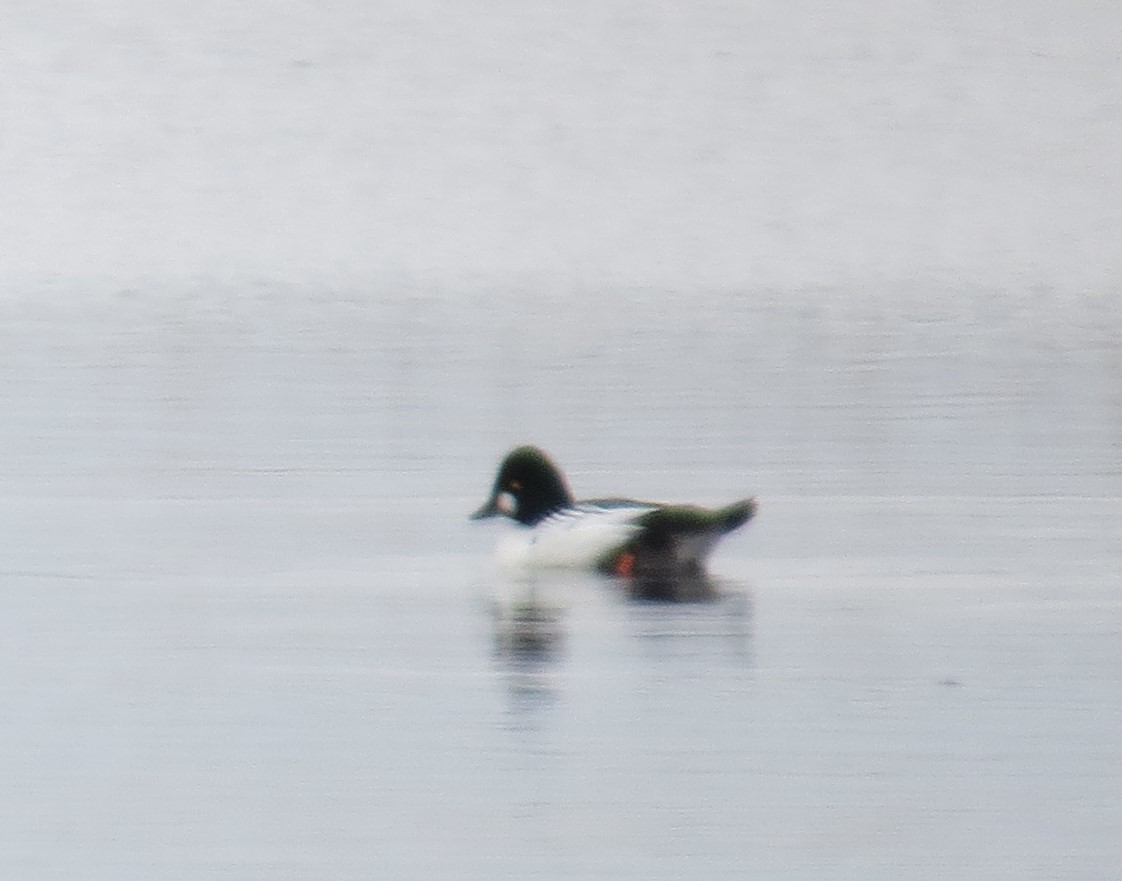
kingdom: Animalia
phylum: Chordata
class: Aves
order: Anseriformes
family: Anatidae
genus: Bucephala
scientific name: Bucephala clangula
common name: Common goldeneye
